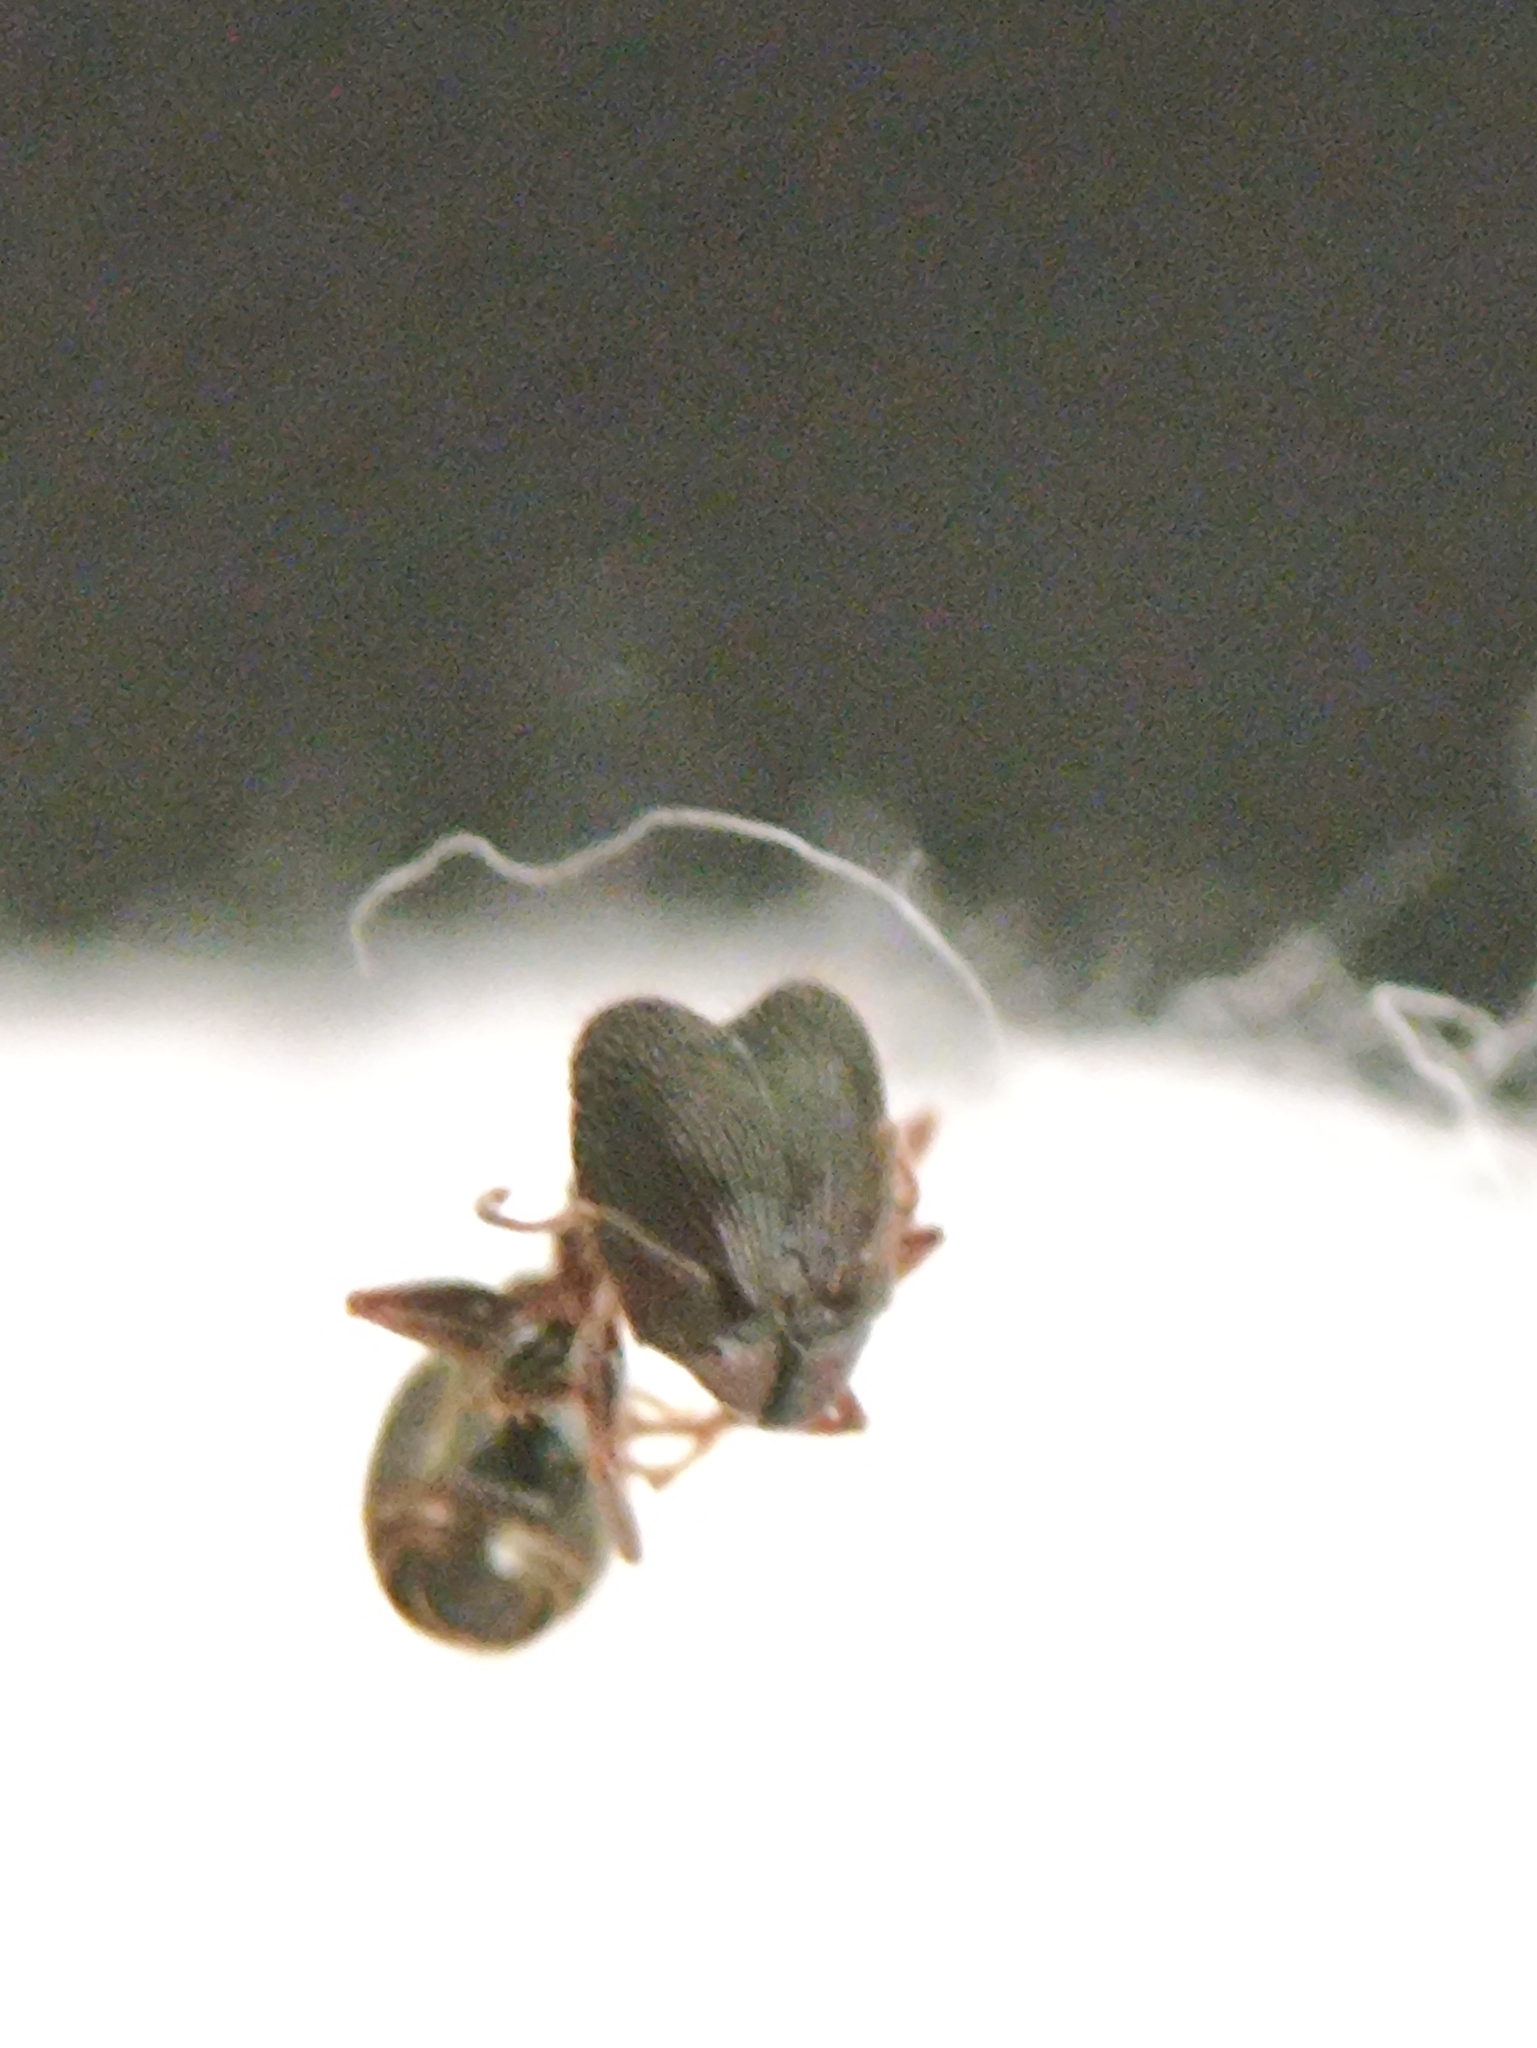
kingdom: Animalia
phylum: Arthropoda
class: Insecta
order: Hymenoptera
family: Formicidae
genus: Pheidole
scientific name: Pheidole noda
